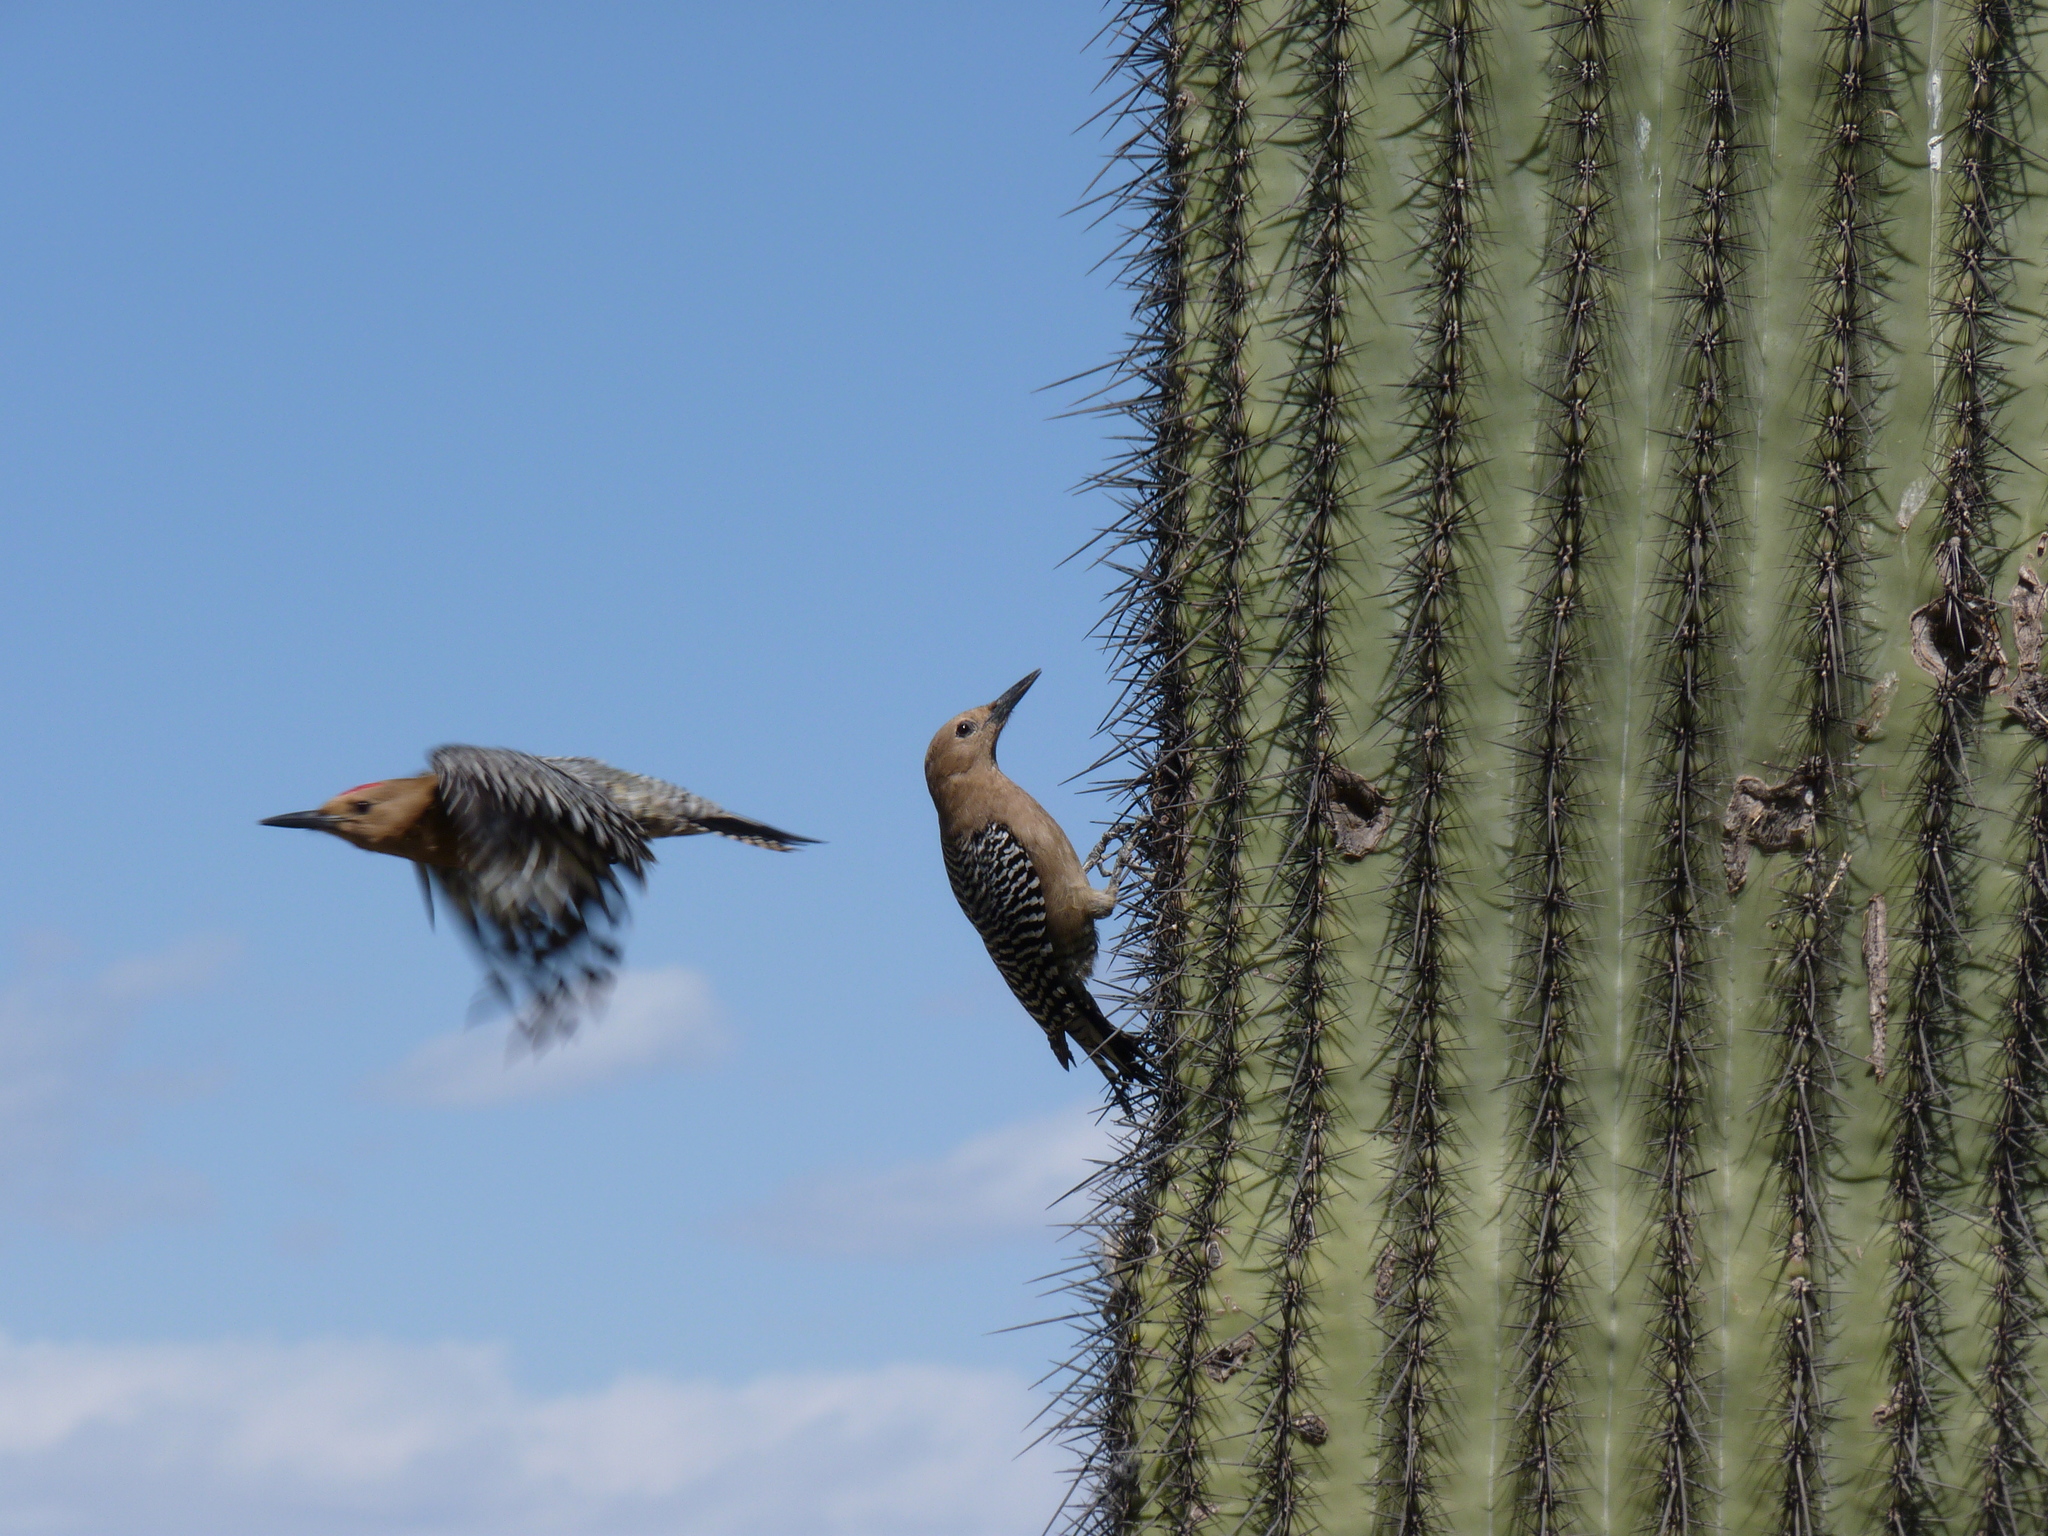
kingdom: Animalia
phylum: Chordata
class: Aves
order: Piciformes
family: Picidae
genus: Melanerpes
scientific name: Melanerpes uropygialis
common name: Gila woodpecker
